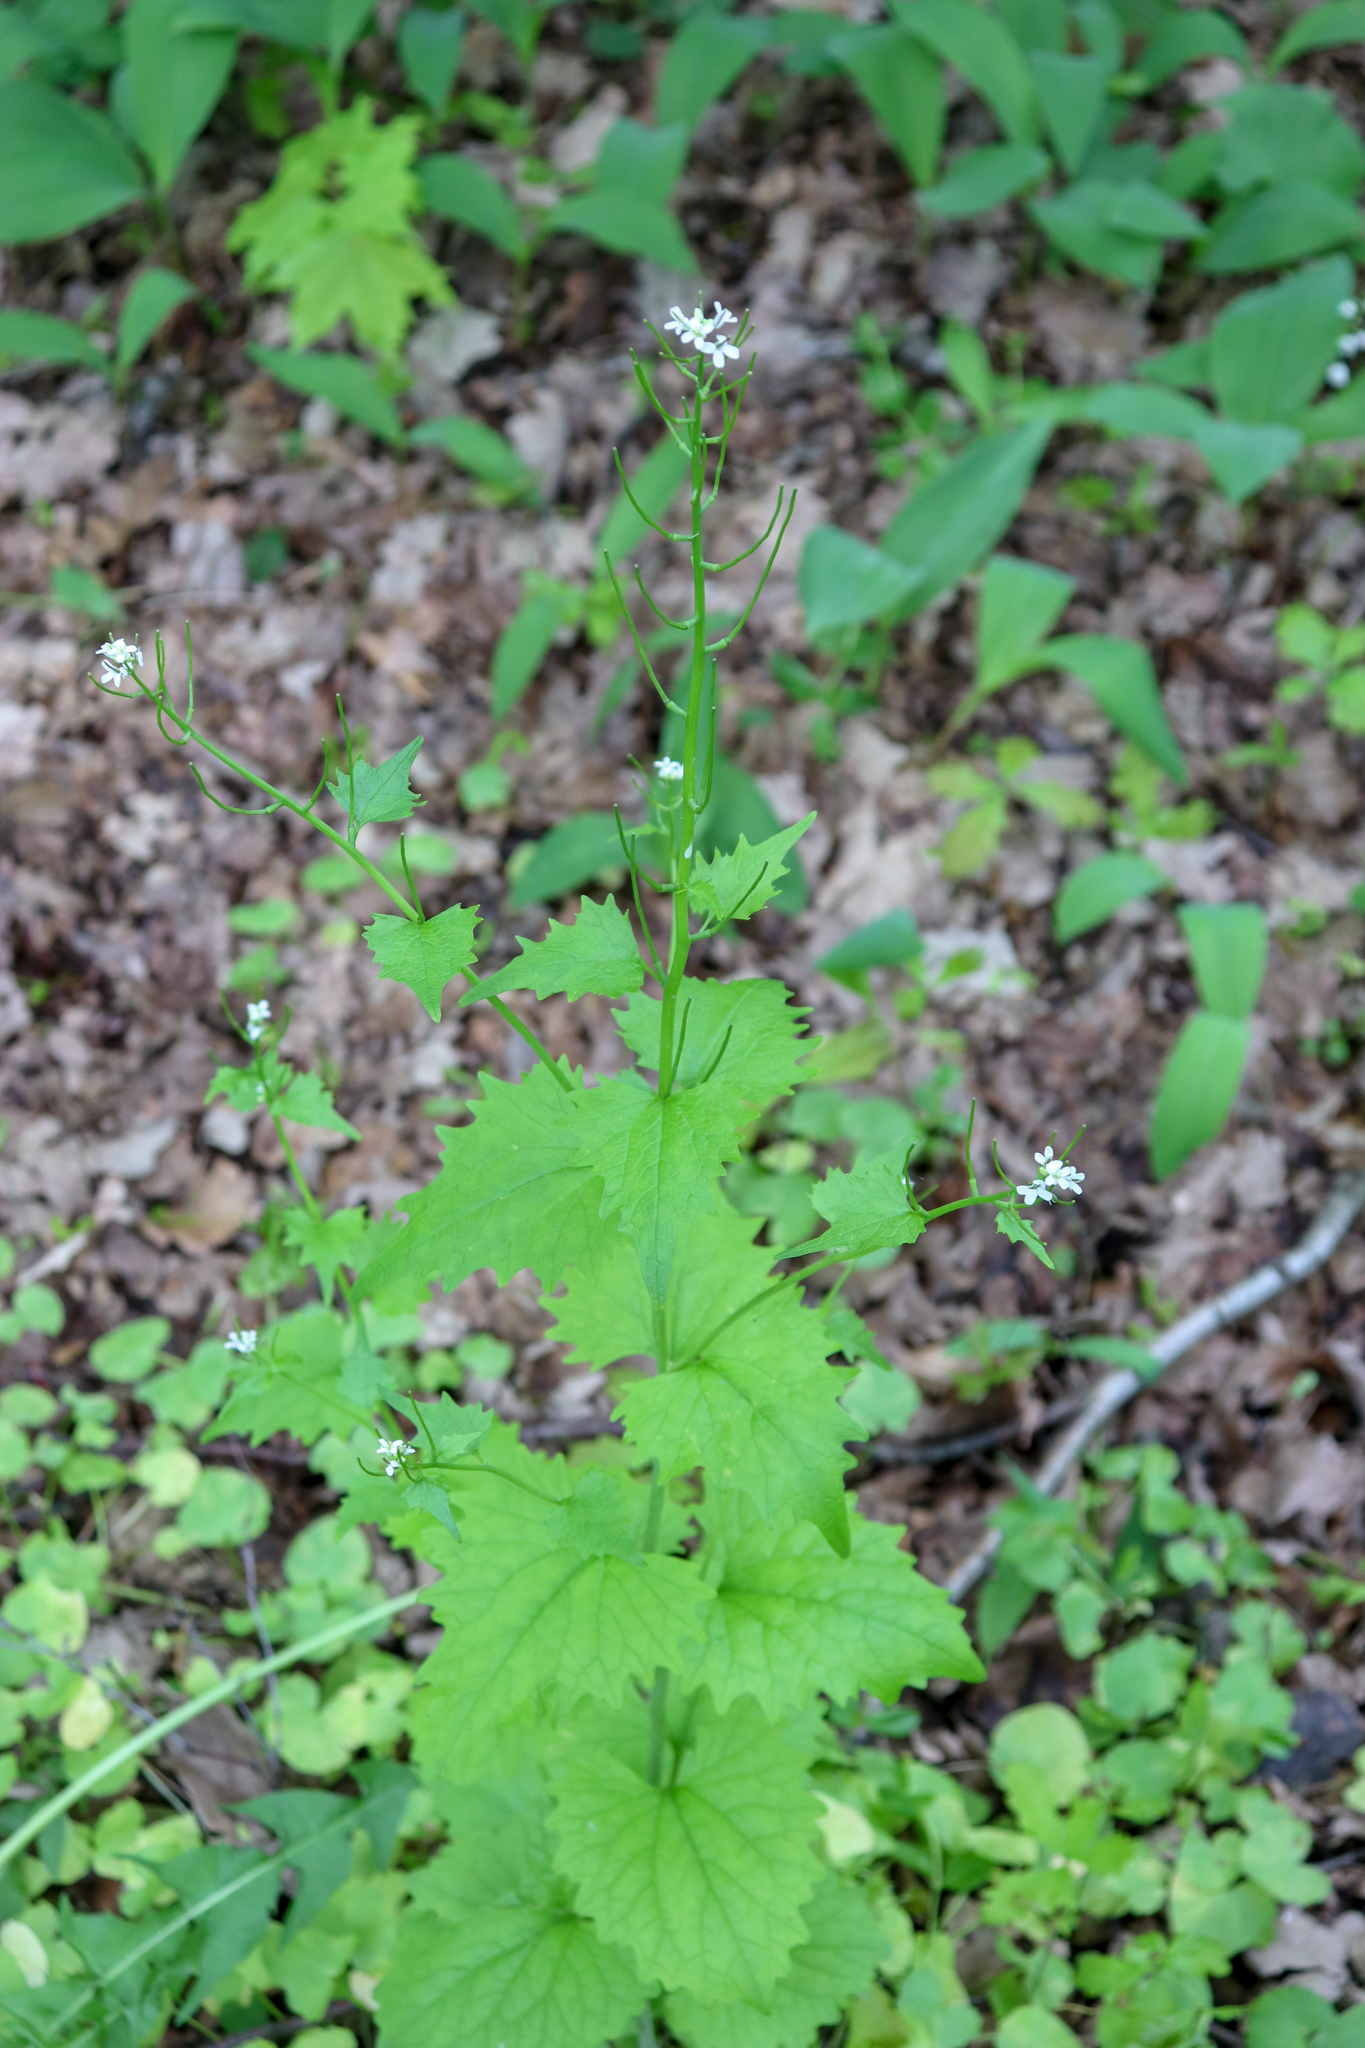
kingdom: Plantae
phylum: Tracheophyta
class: Magnoliopsida
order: Brassicales
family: Brassicaceae
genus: Alliaria
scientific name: Alliaria petiolata
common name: Garlic mustard
